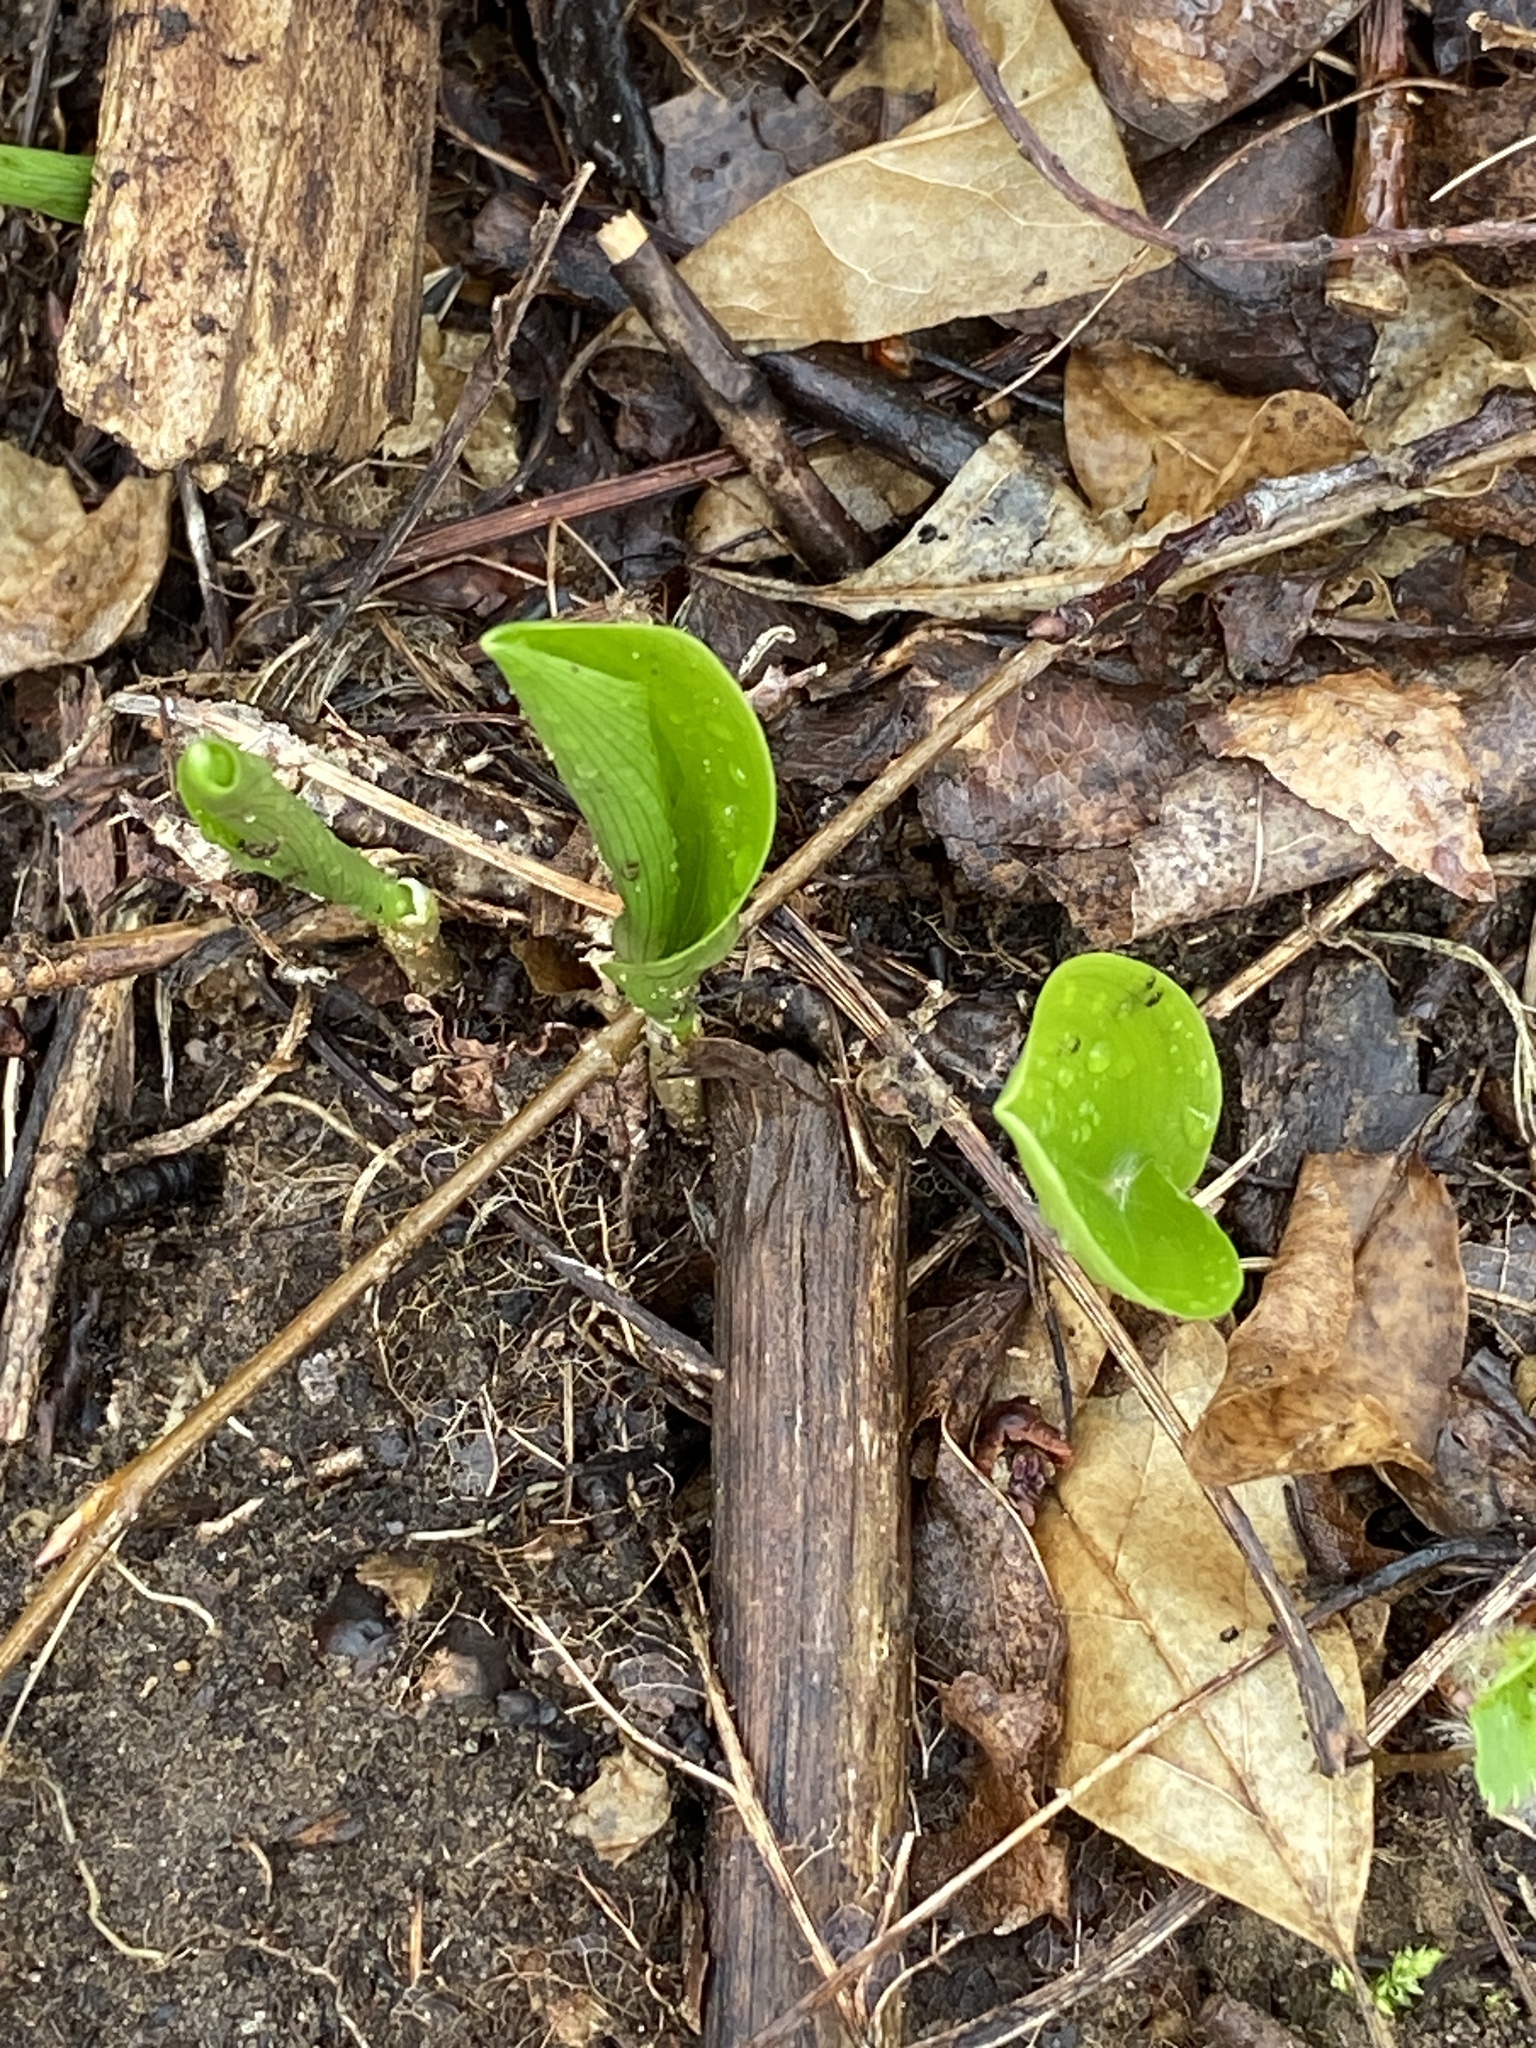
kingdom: Plantae
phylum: Tracheophyta
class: Liliopsida
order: Asparagales
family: Asparagaceae
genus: Maianthemum
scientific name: Maianthemum canadense
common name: False lily-of-the-valley
